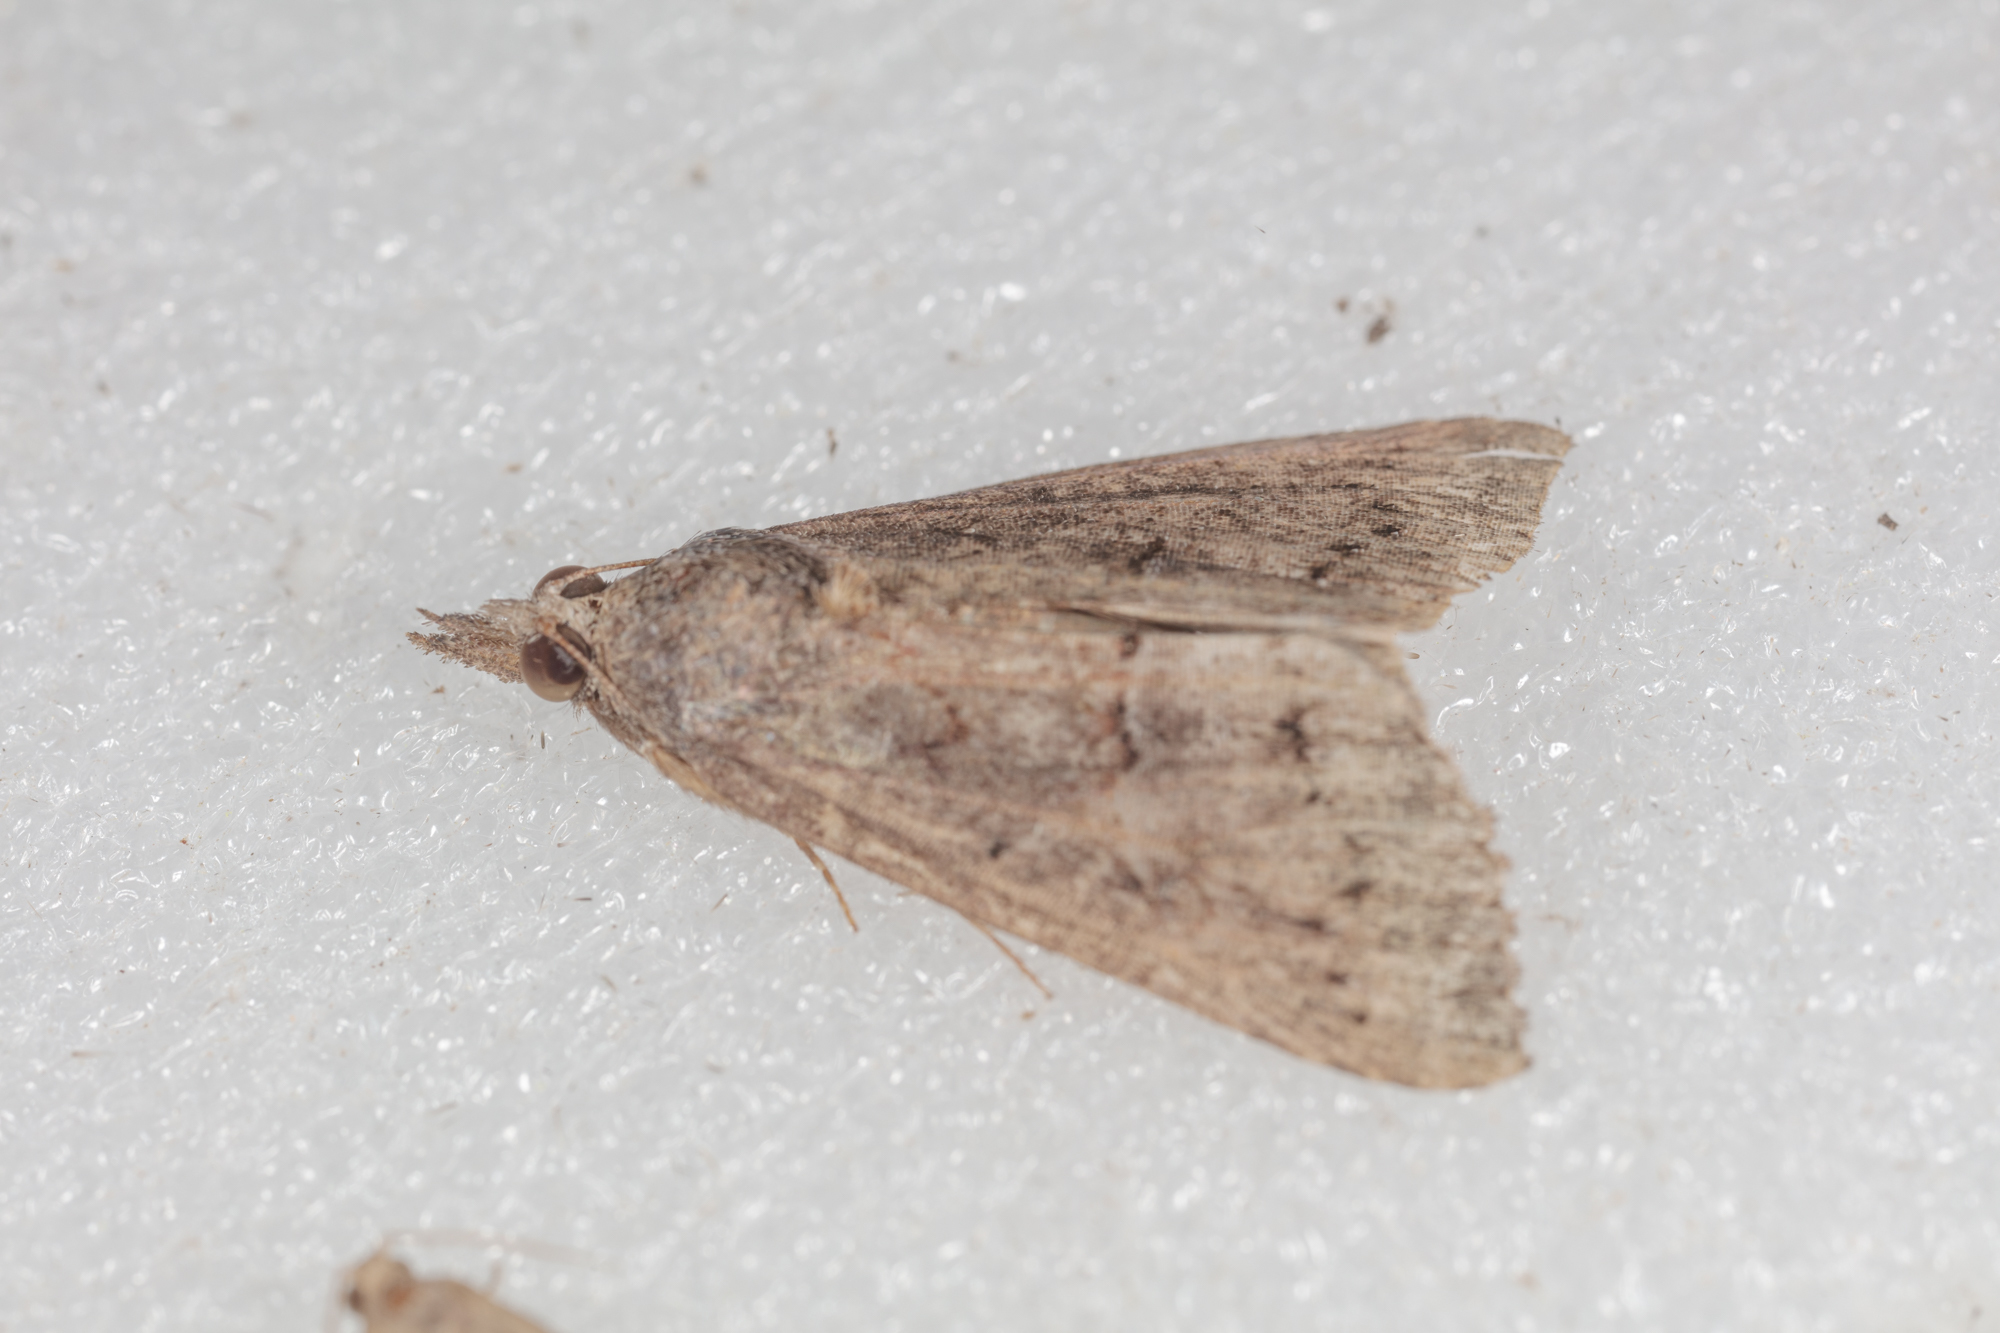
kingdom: Animalia
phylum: Arthropoda
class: Insecta
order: Lepidoptera
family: Erebidae
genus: Hypena
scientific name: Hypena scabra
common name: Green cloverworm
